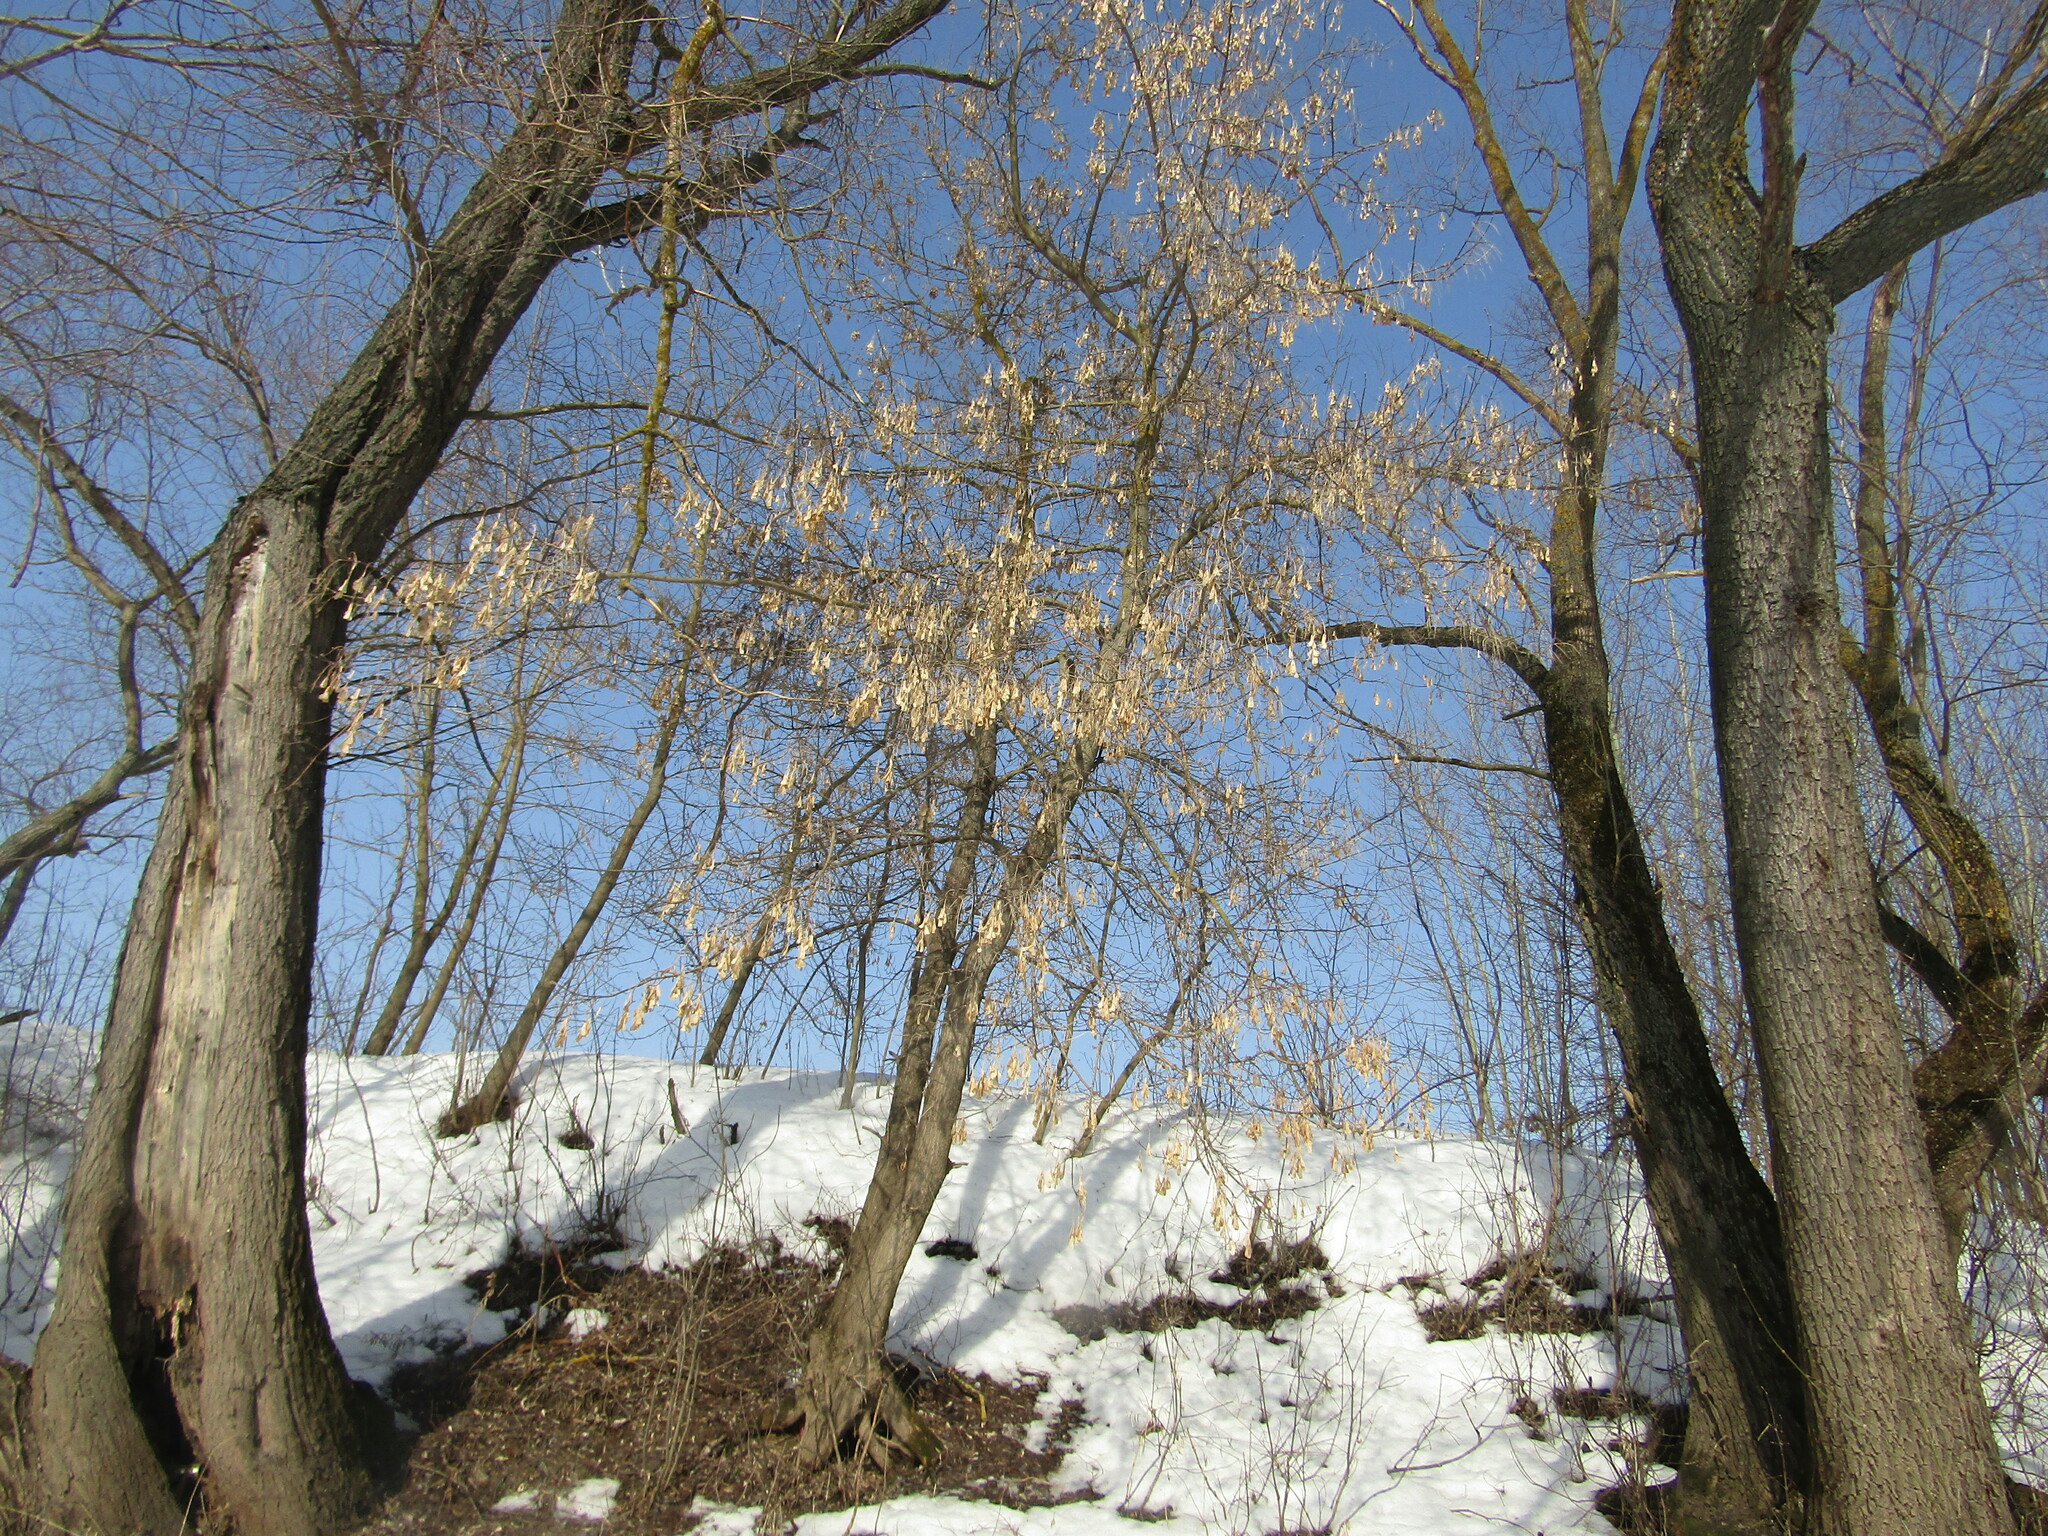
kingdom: Plantae
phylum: Tracheophyta
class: Magnoliopsida
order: Sapindales
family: Sapindaceae
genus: Acer
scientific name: Acer negundo
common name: Ashleaf maple
